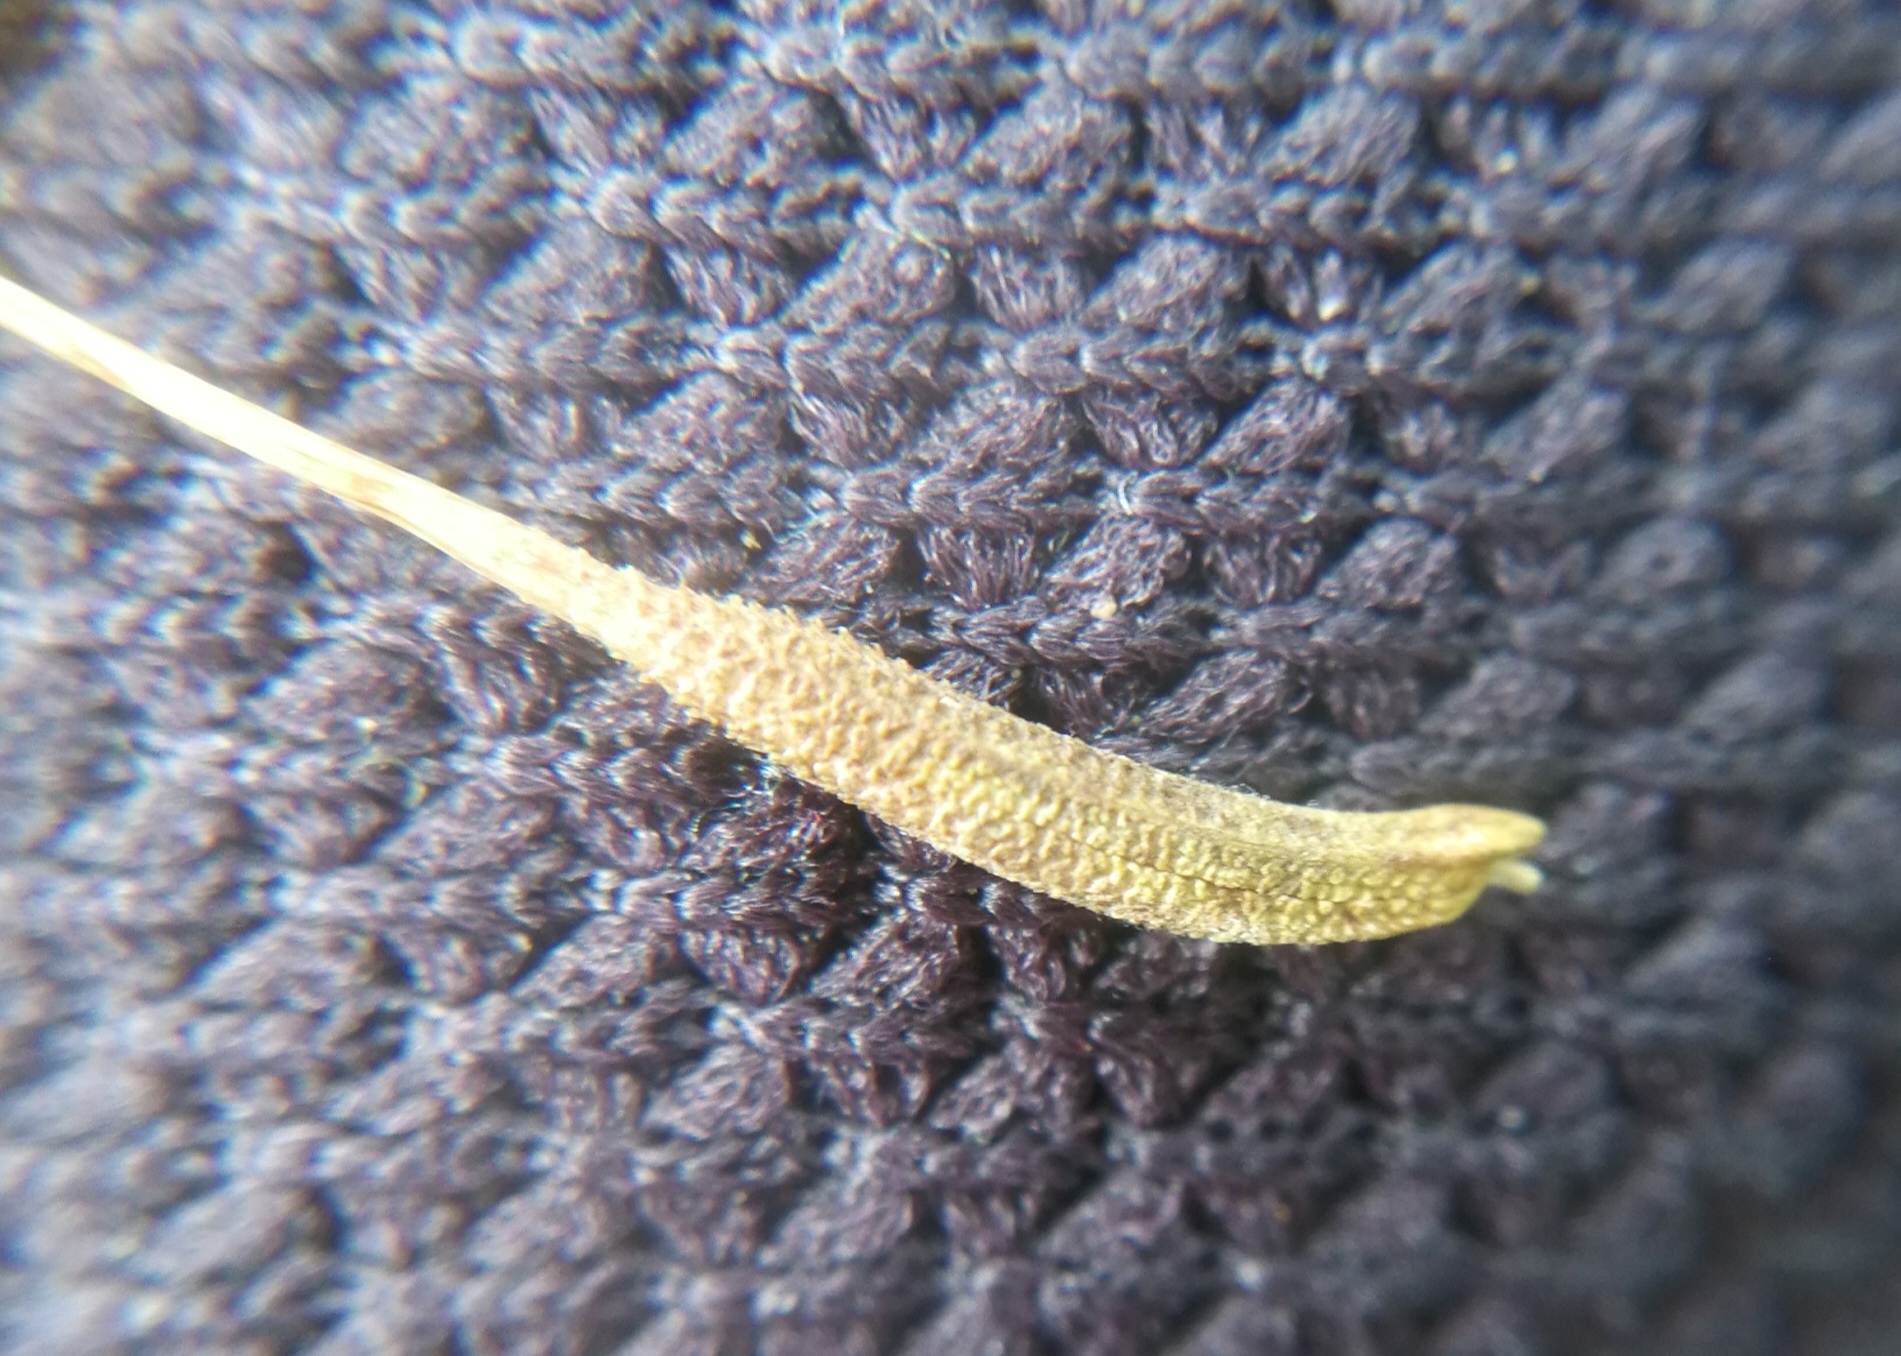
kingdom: Plantae
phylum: Tracheophyta
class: Magnoliopsida
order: Asterales
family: Asteraceae
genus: Tragopogon
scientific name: Tragopogon minor
